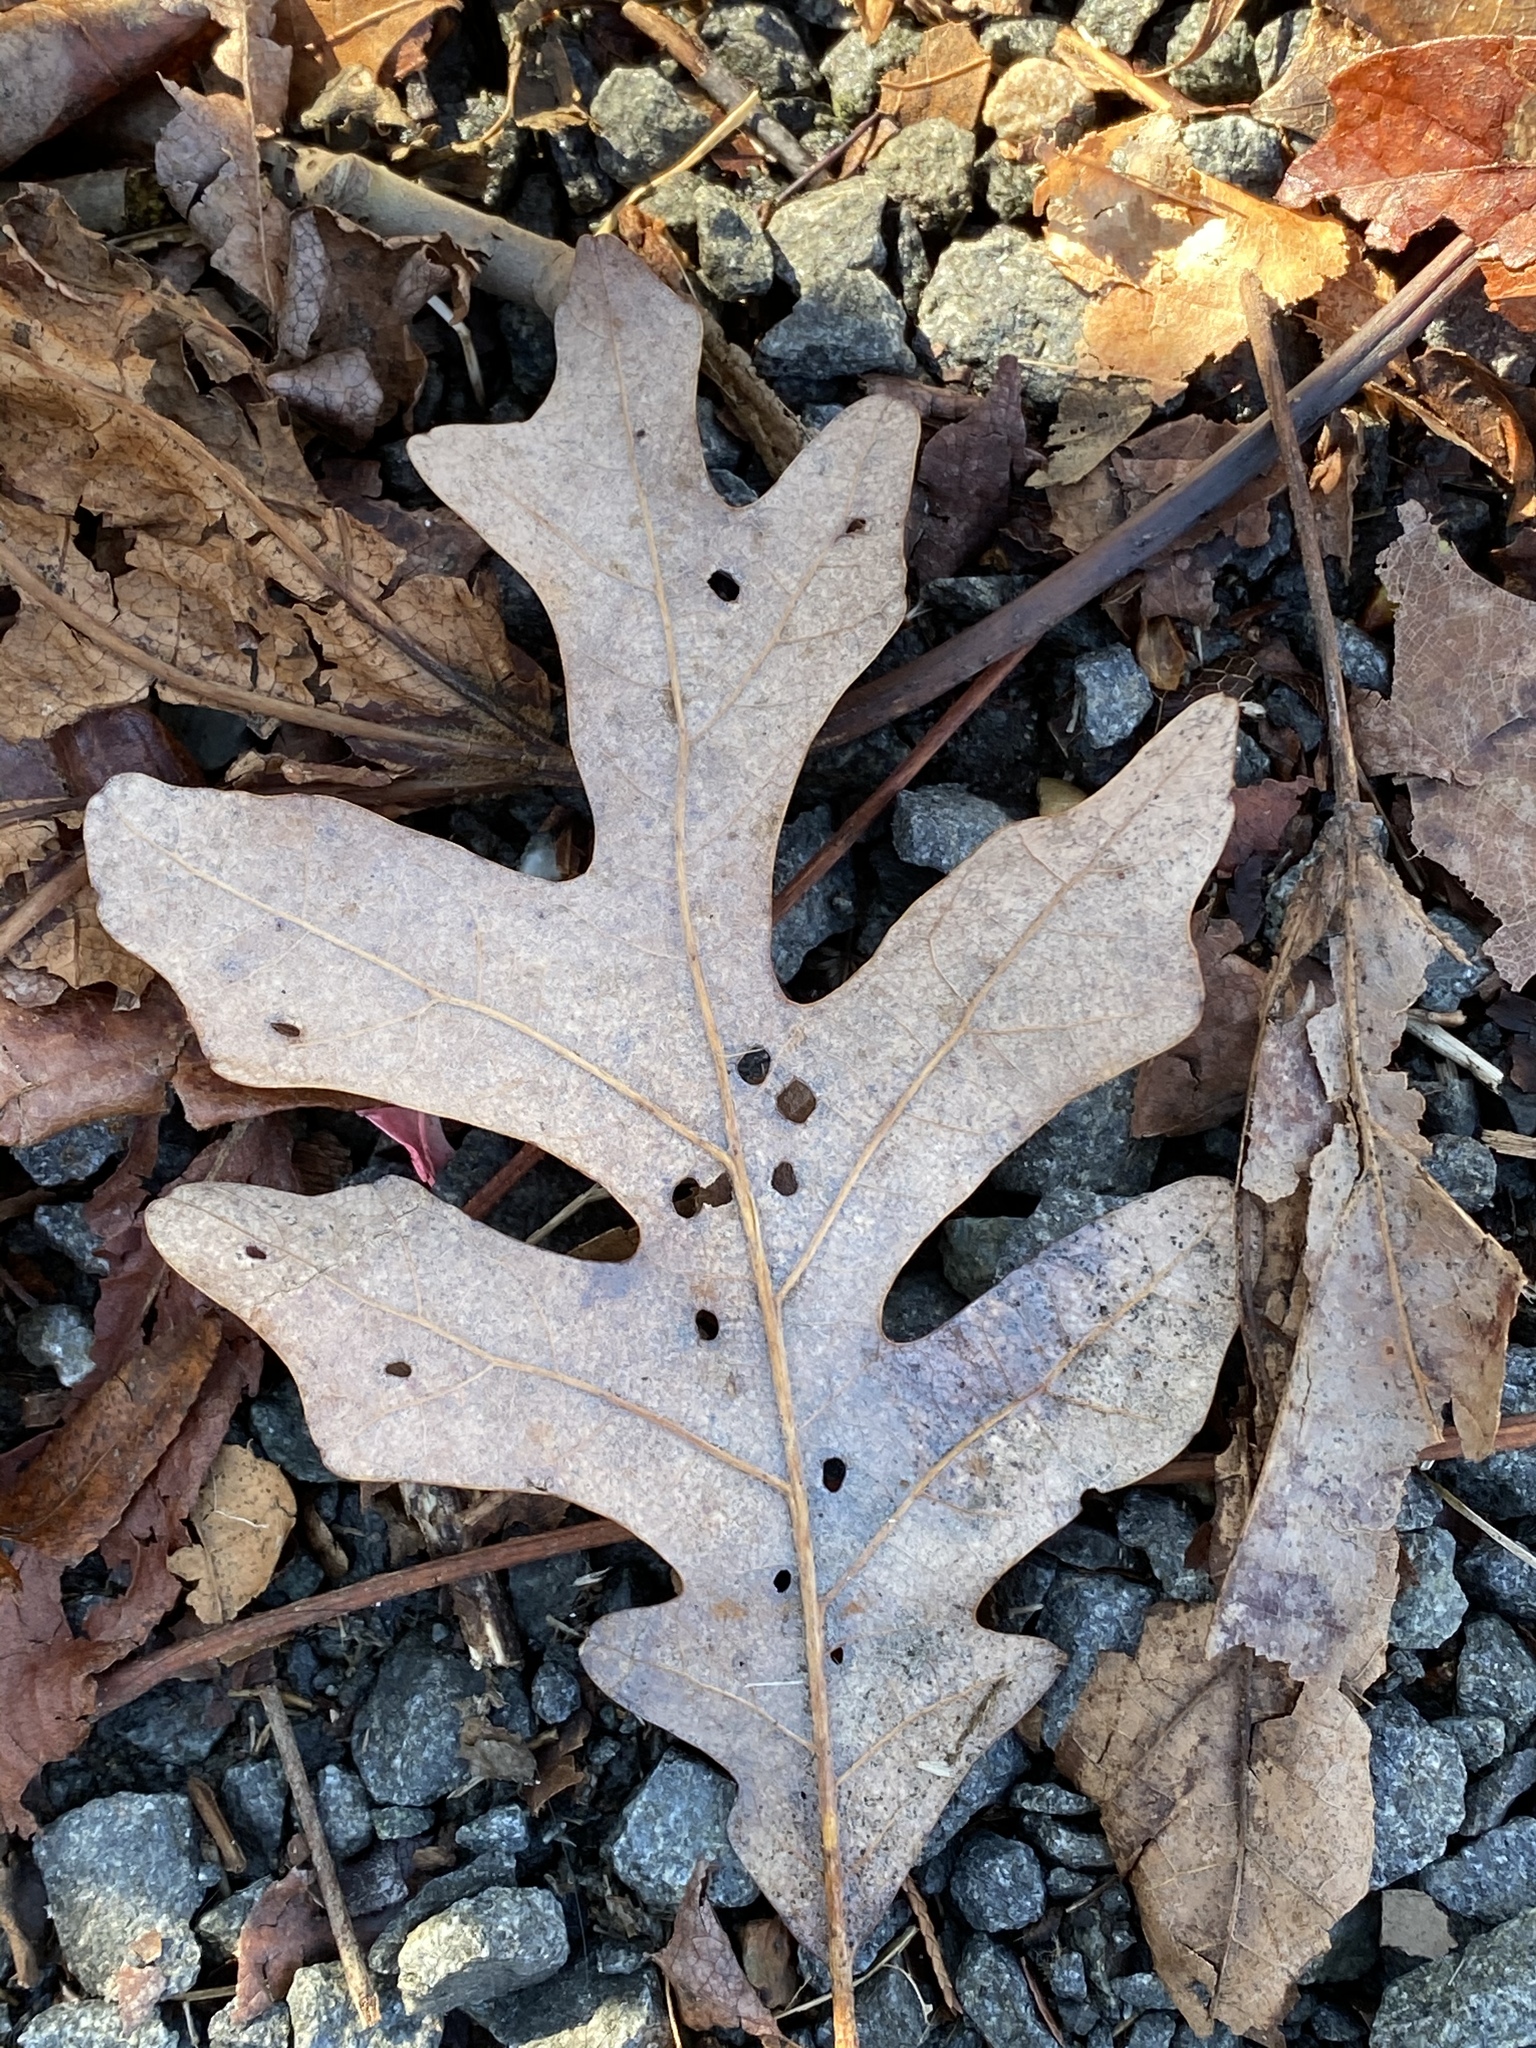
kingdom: Plantae
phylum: Tracheophyta
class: Magnoliopsida
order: Fagales
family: Fagaceae
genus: Quercus
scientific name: Quercus alba
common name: White oak
